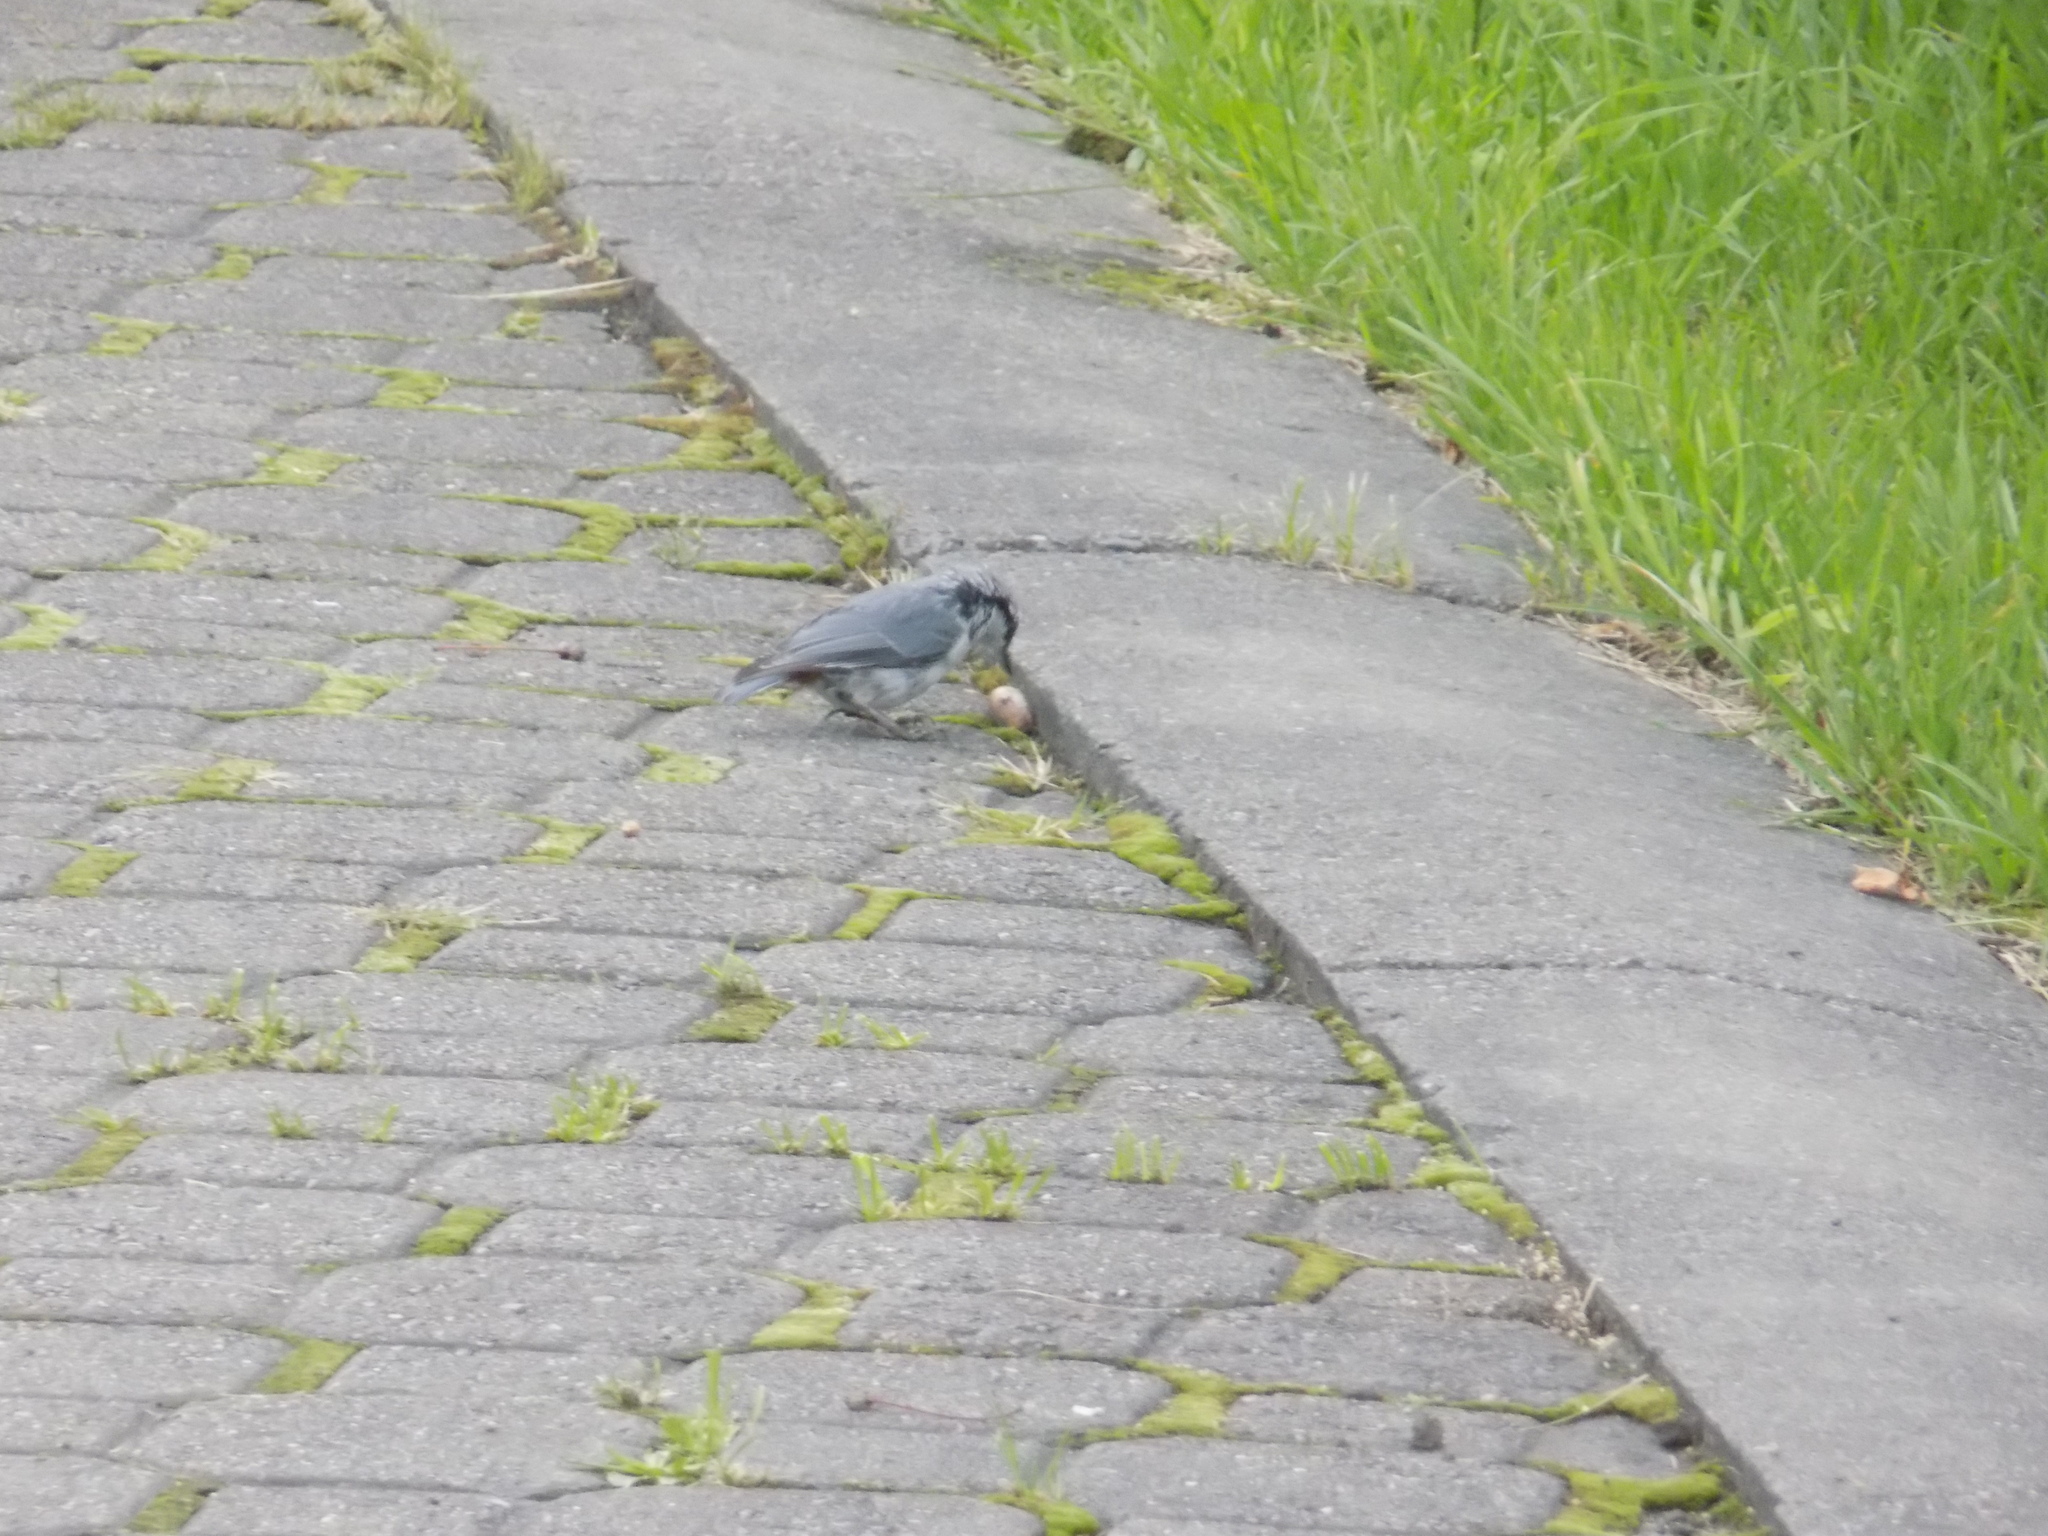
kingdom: Animalia
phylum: Chordata
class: Aves
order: Passeriformes
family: Sittidae
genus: Sitta
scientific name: Sitta europaea
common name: Eurasian nuthatch
